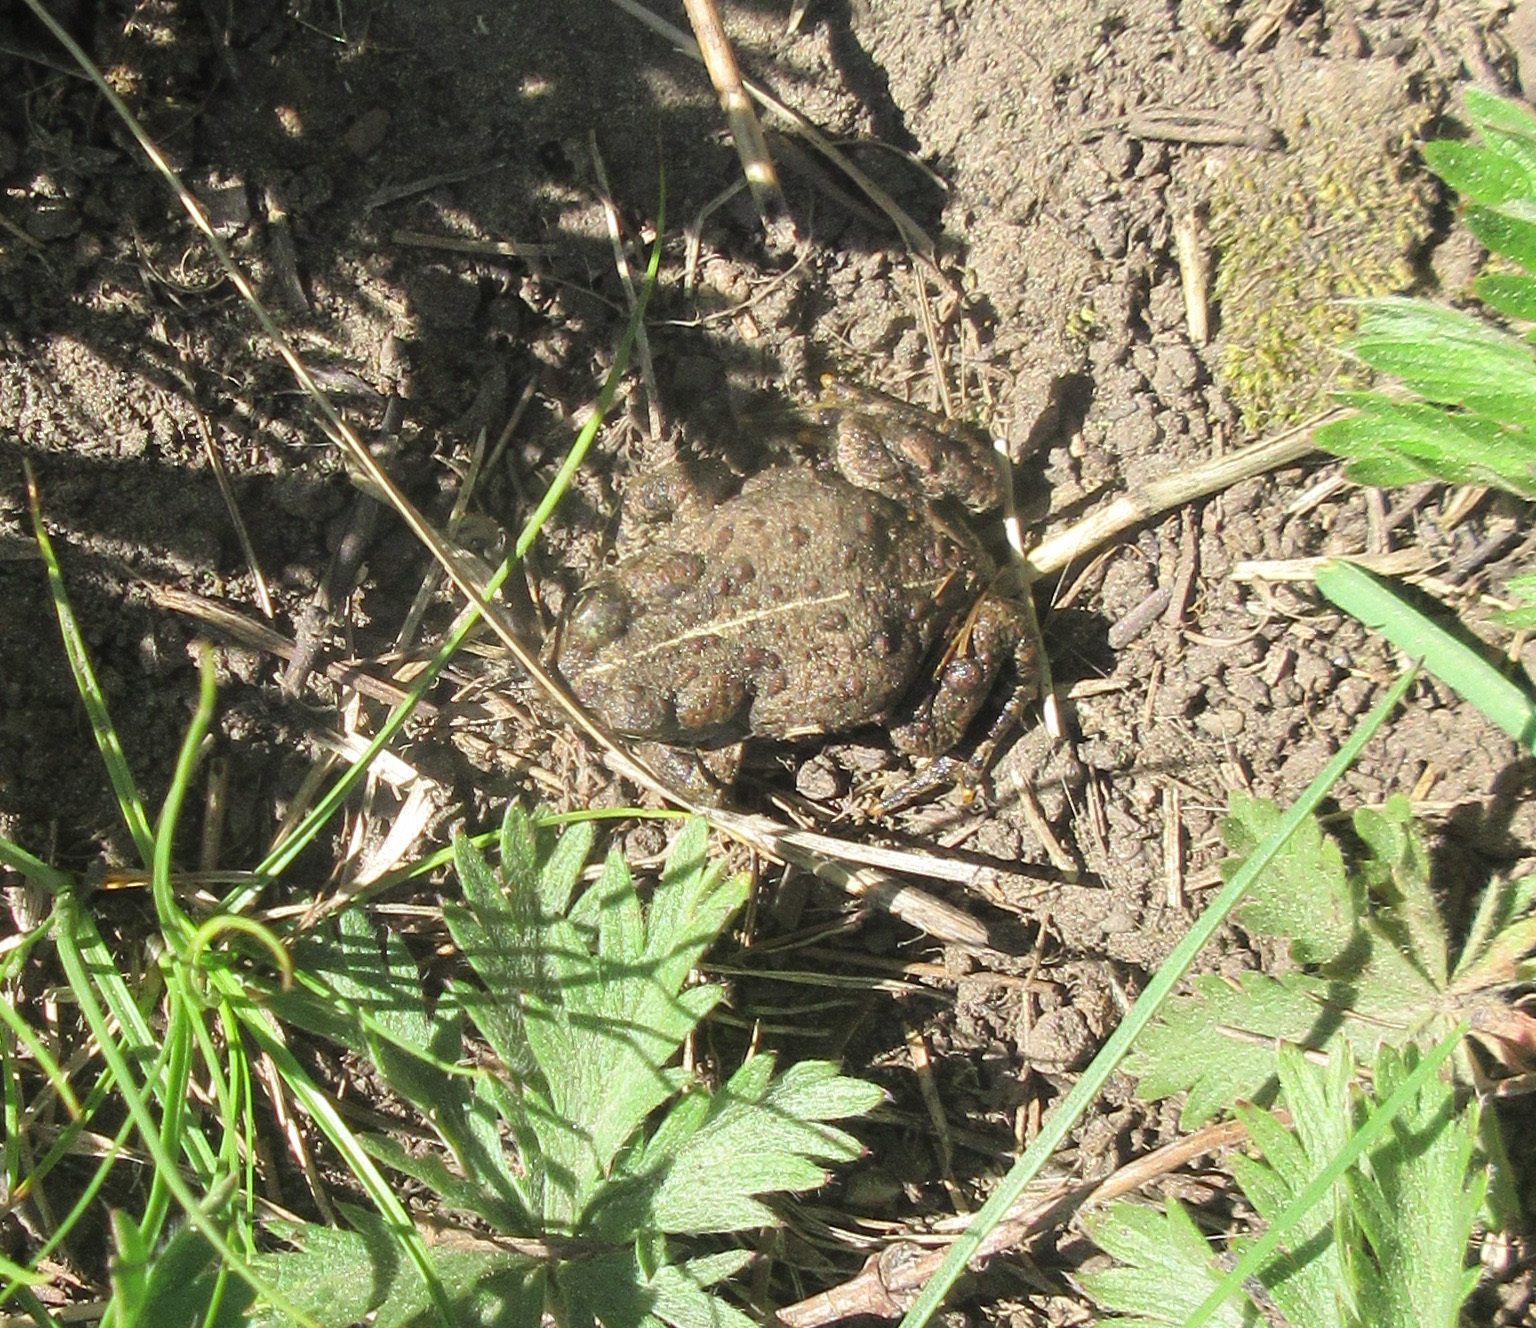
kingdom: Animalia
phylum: Chordata
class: Amphibia
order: Anura
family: Bufonidae
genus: Anaxyrus
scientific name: Anaxyrus boreas
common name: Western toad
